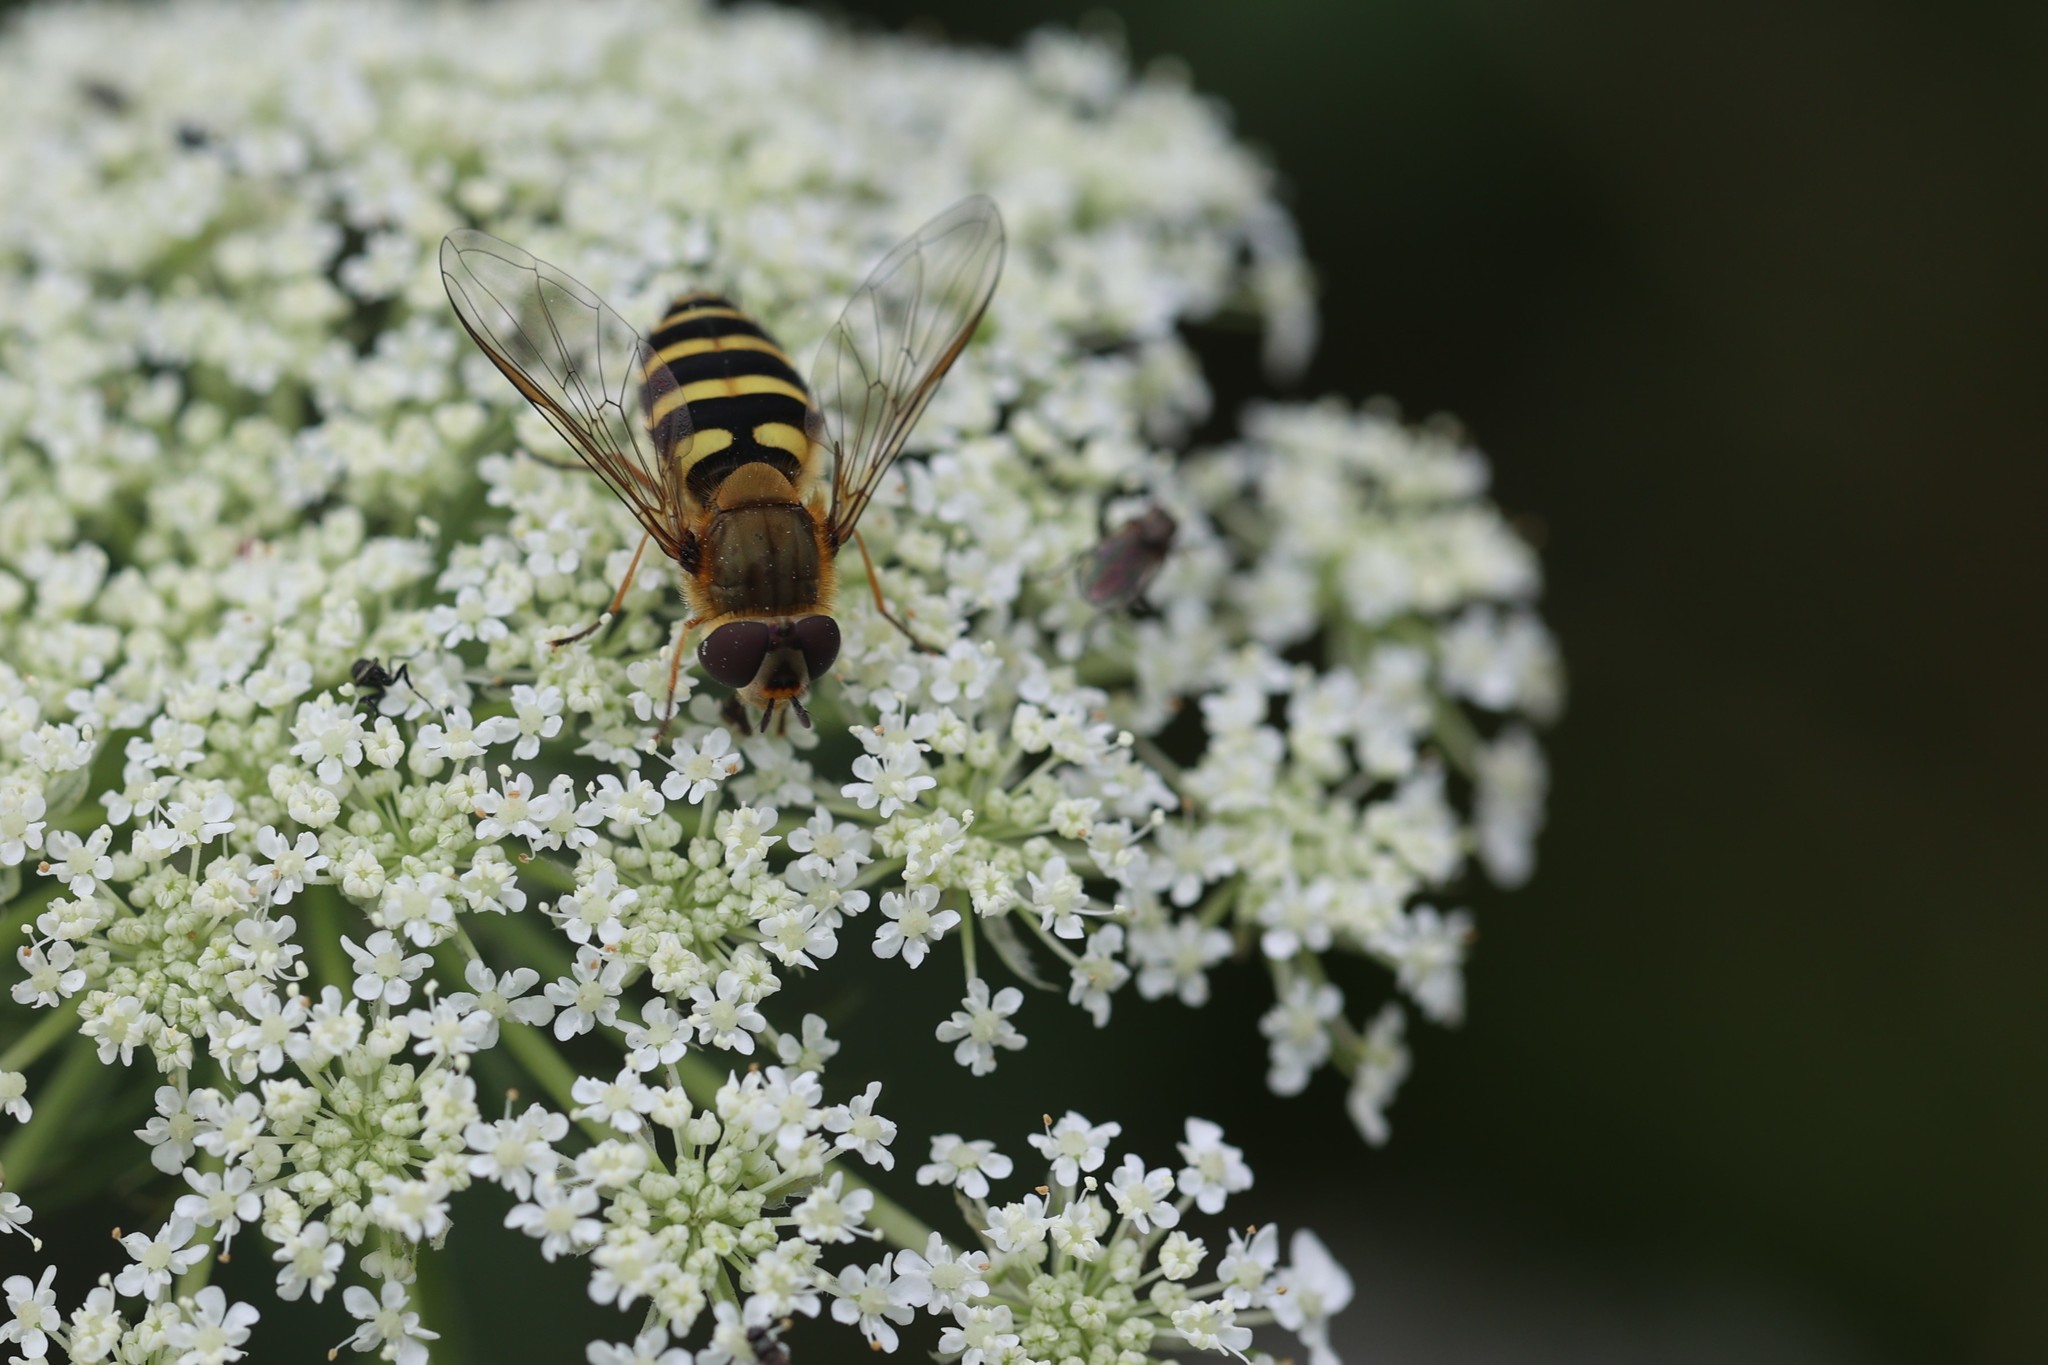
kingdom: Animalia
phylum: Arthropoda
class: Insecta
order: Diptera
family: Syrphidae
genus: Syrphus
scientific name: Syrphus ribesii
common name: Common flower fly
